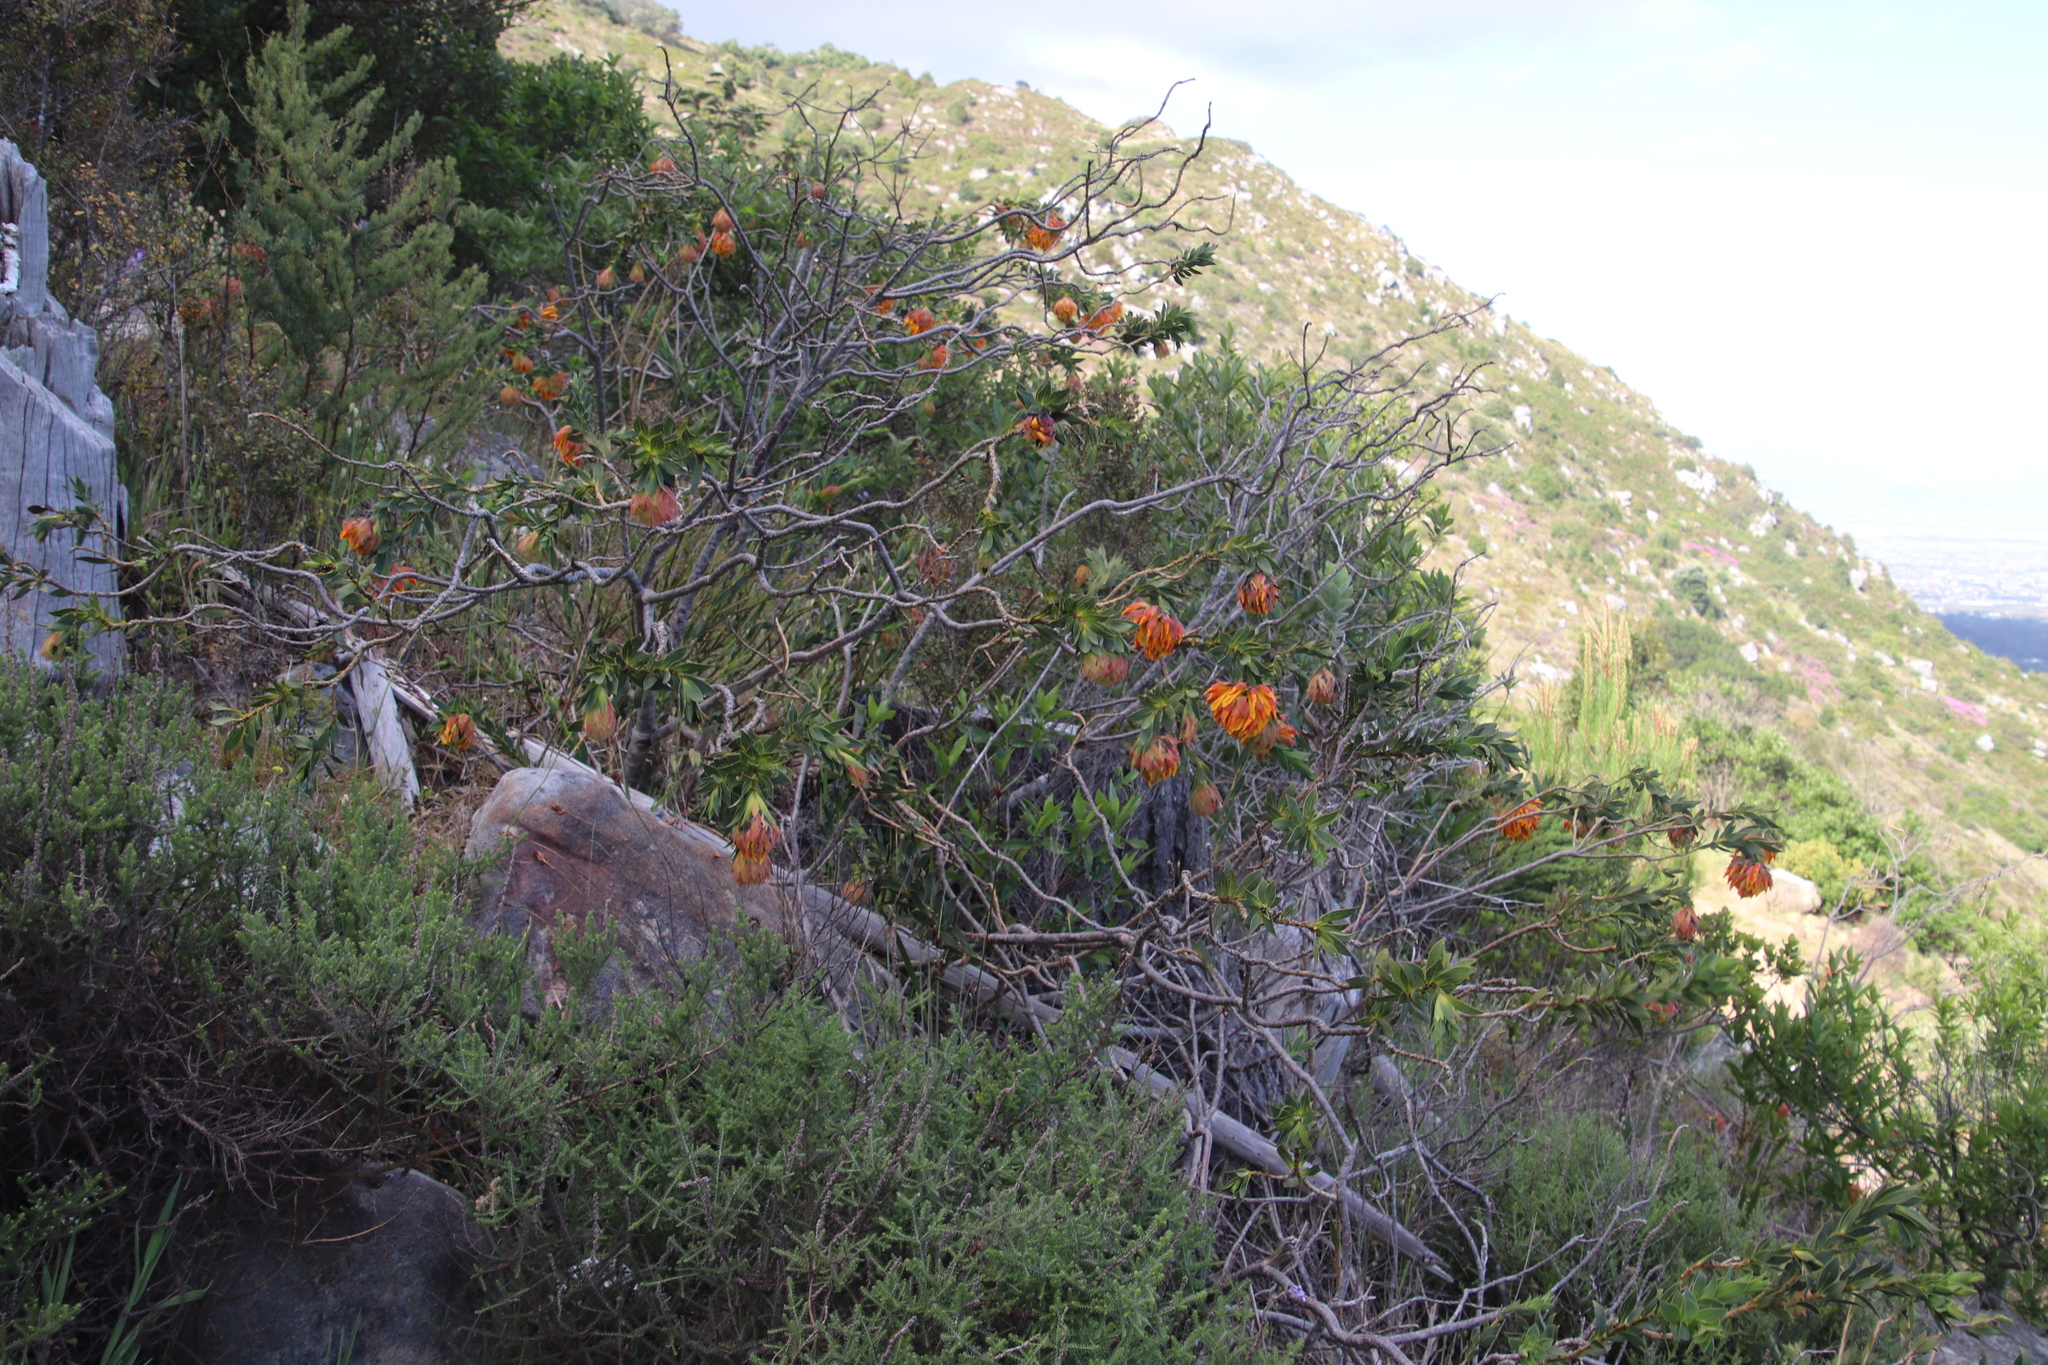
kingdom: Plantae
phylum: Tracheophyta
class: Magnoliopsida
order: Fabales
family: Fabaceae
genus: Liparia
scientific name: Liparia splendens
